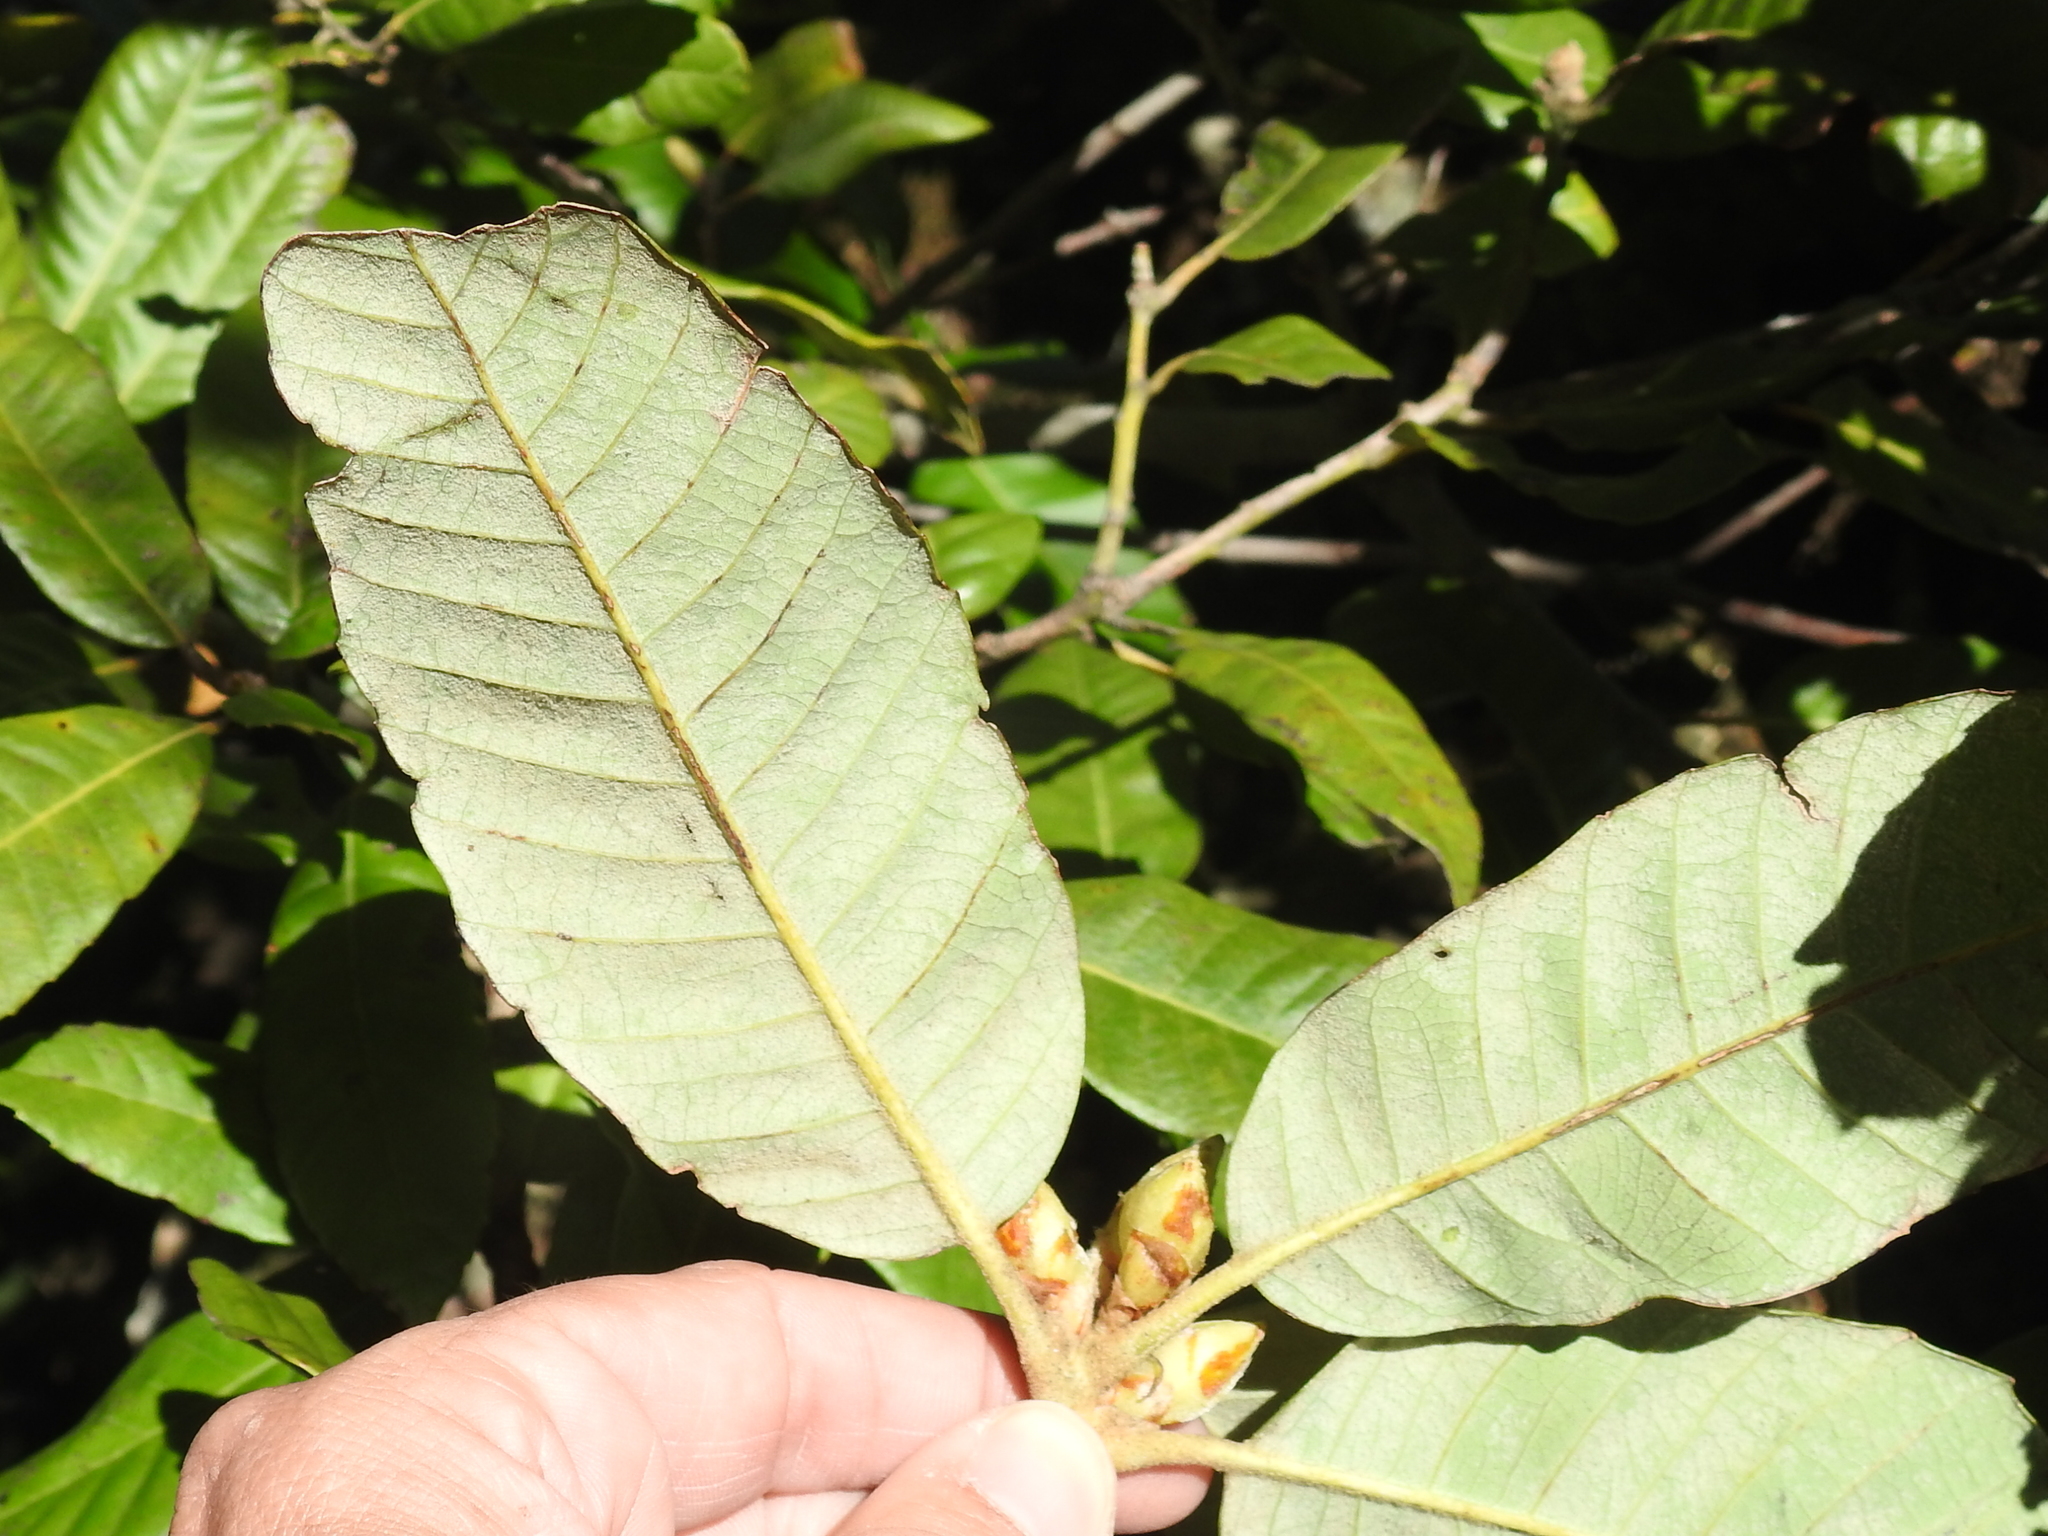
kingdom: Plantae
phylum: Tracheophyta
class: Magnoliopsida
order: Fagales
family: Fagaceae
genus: Notholithocarpus
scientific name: Notholithocarpus densiflorus
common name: Tan bark oak
